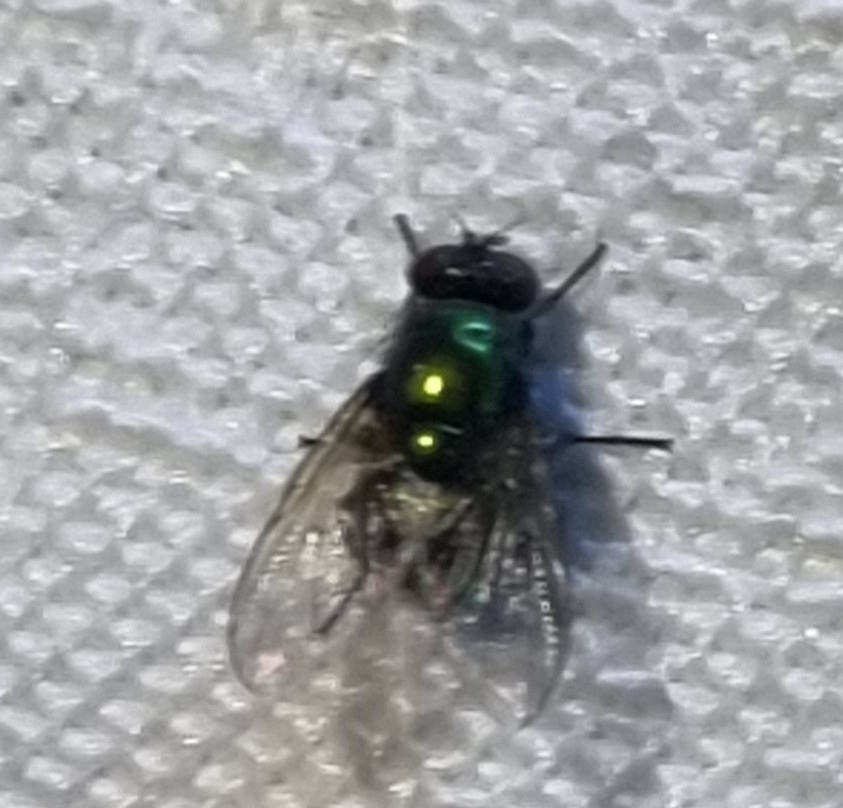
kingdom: Animalia
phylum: Arthropoda
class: Insecta
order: Diptera
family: Calliphoridae
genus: Lucilia
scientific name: Lucilia sericata
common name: Blow fly
